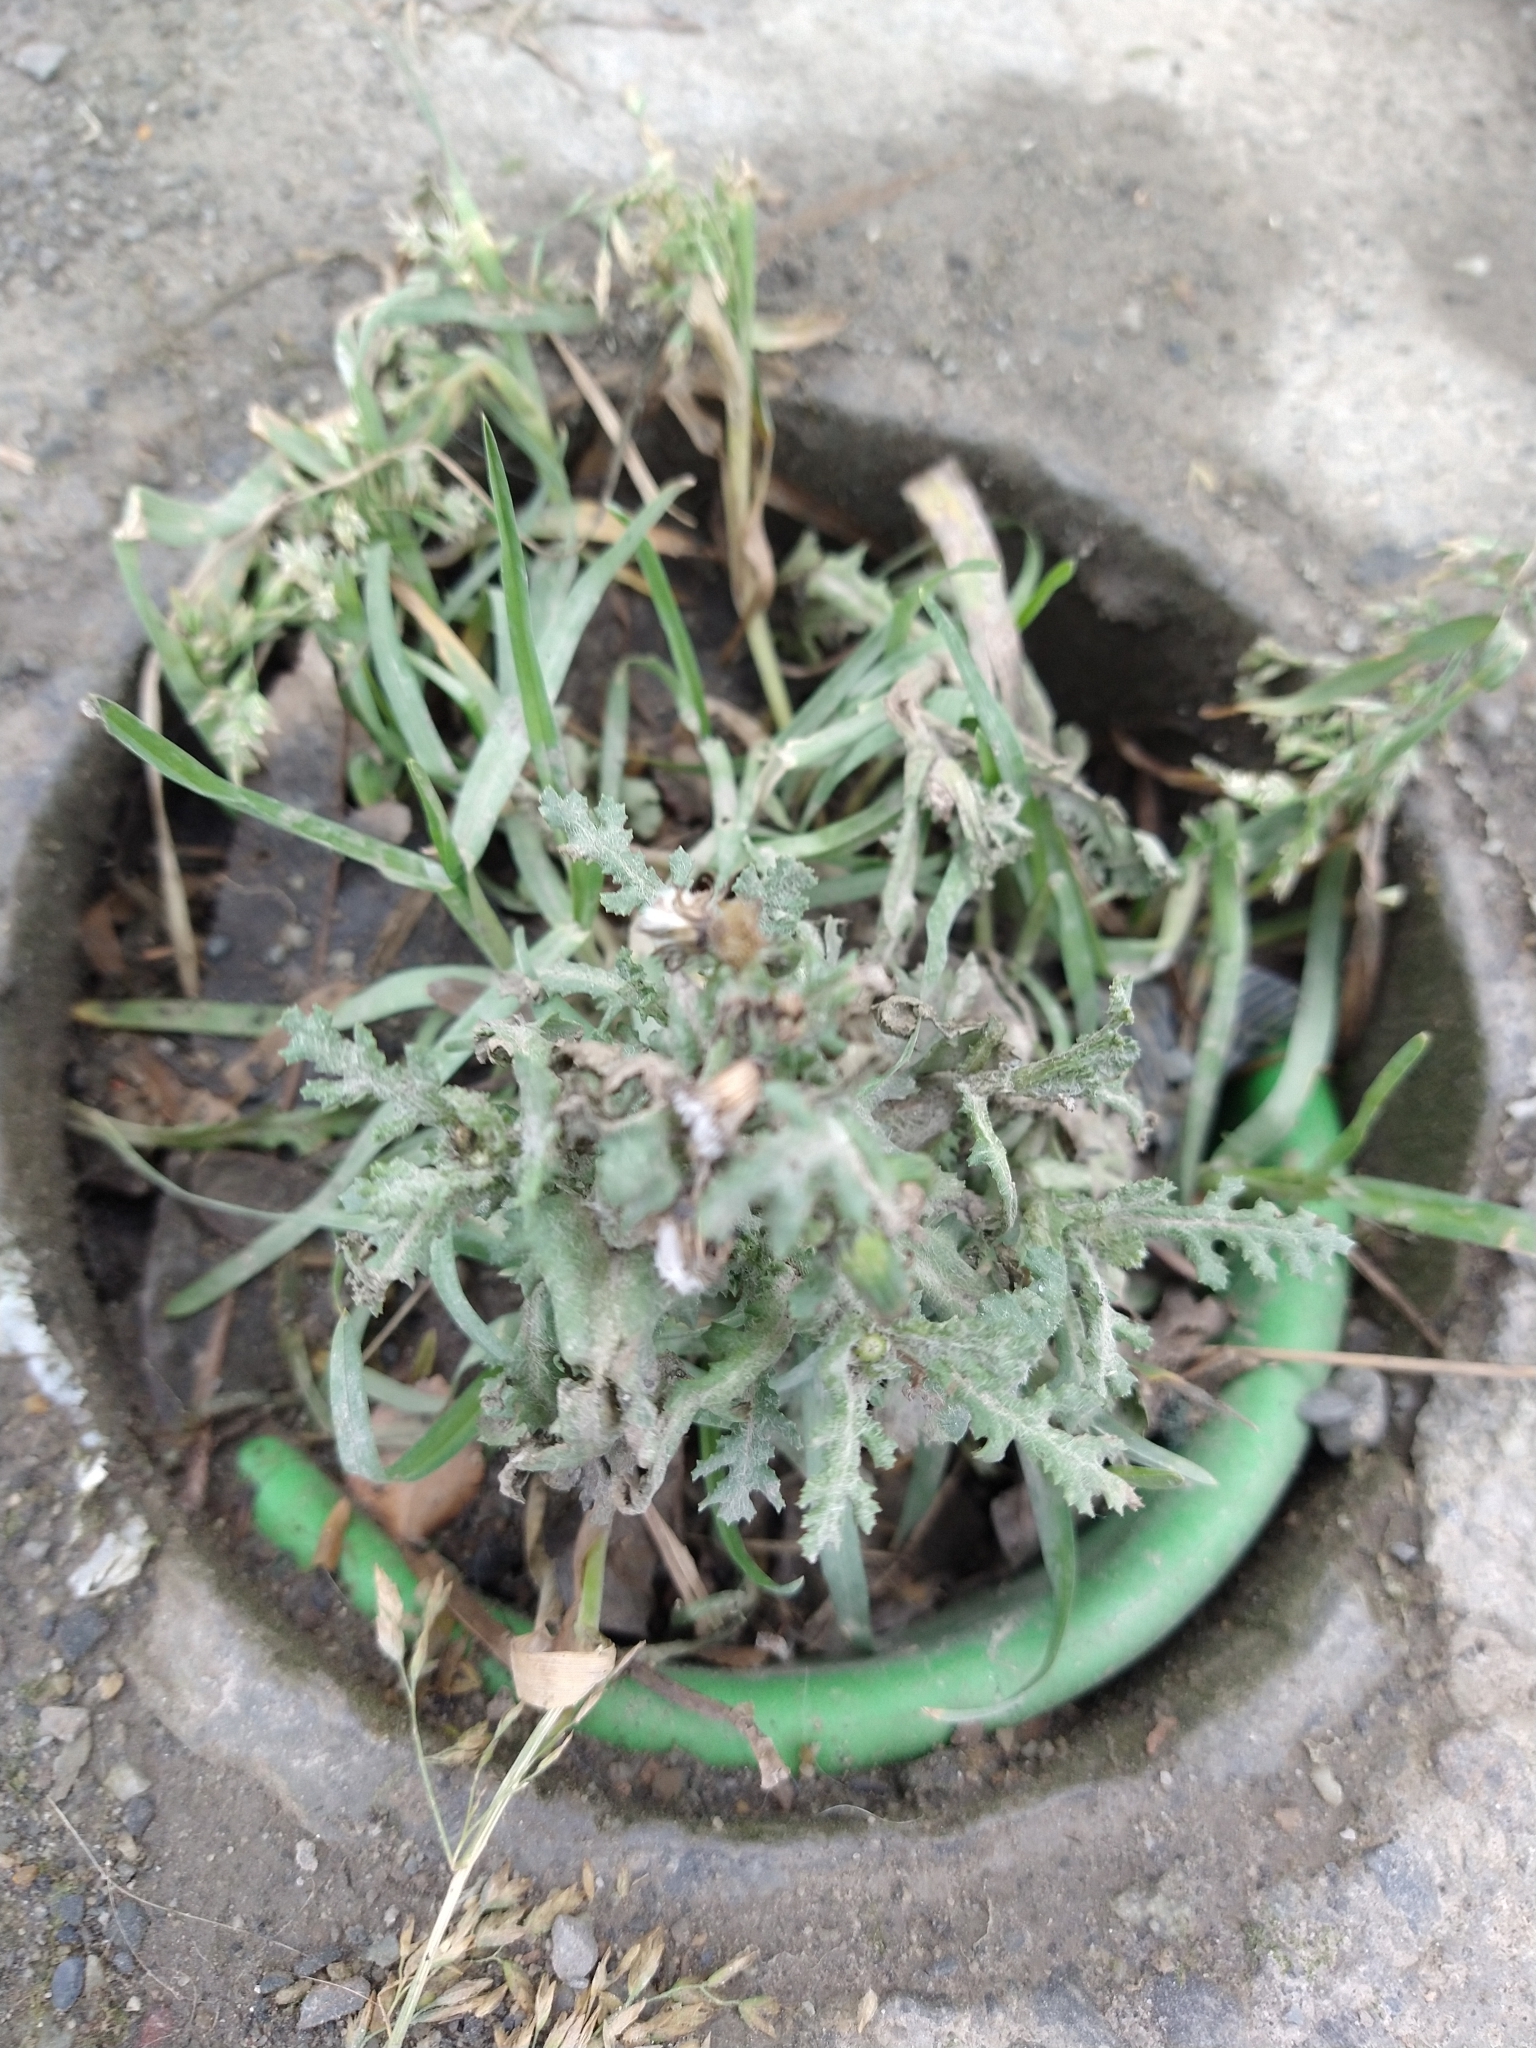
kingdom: Plantae
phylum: Tracheophyta
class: Magnoliopsida
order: Asterales
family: Asteraceae
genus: Senecio
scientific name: Senecio vulgaris
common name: Old-man-in-the-spring
